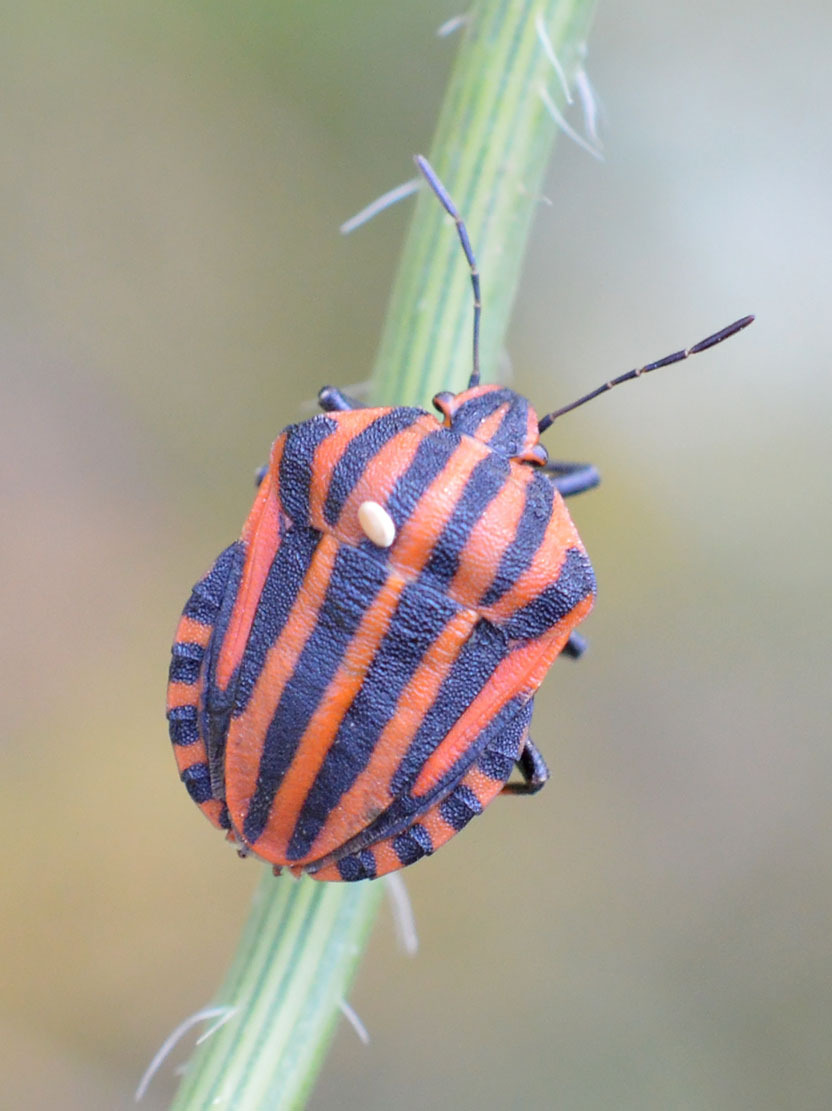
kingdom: Animalia
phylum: Arthropoda
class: Insecta
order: Hemiptera
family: Pentatomidae
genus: Graphosoma
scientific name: Graphosoma italicum
